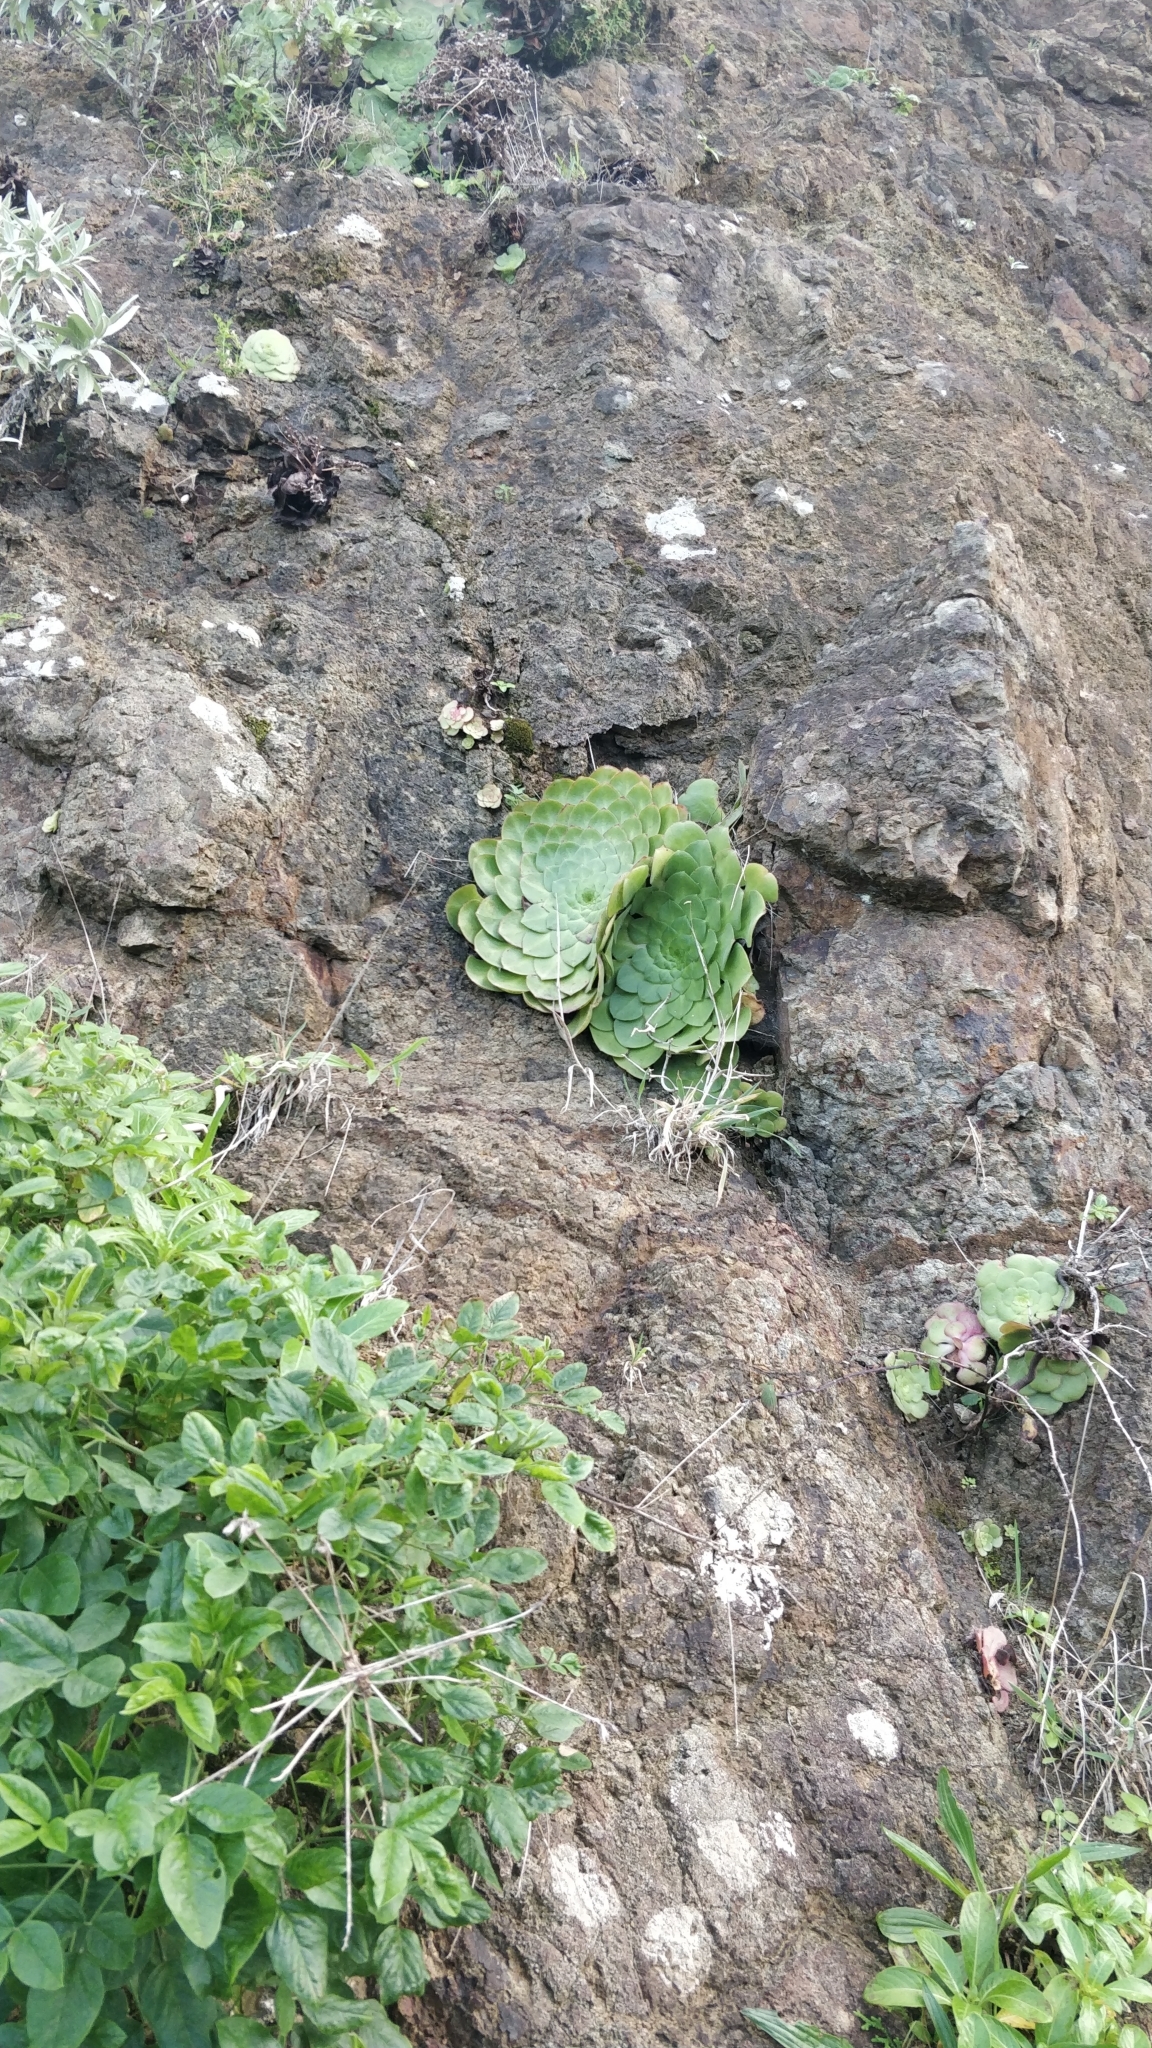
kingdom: Plantae
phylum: Tracheophyta
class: Magnoliopsida
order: Saxifragales
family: Crassulaceae
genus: Aeonium
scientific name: Aeonium glandulosum
